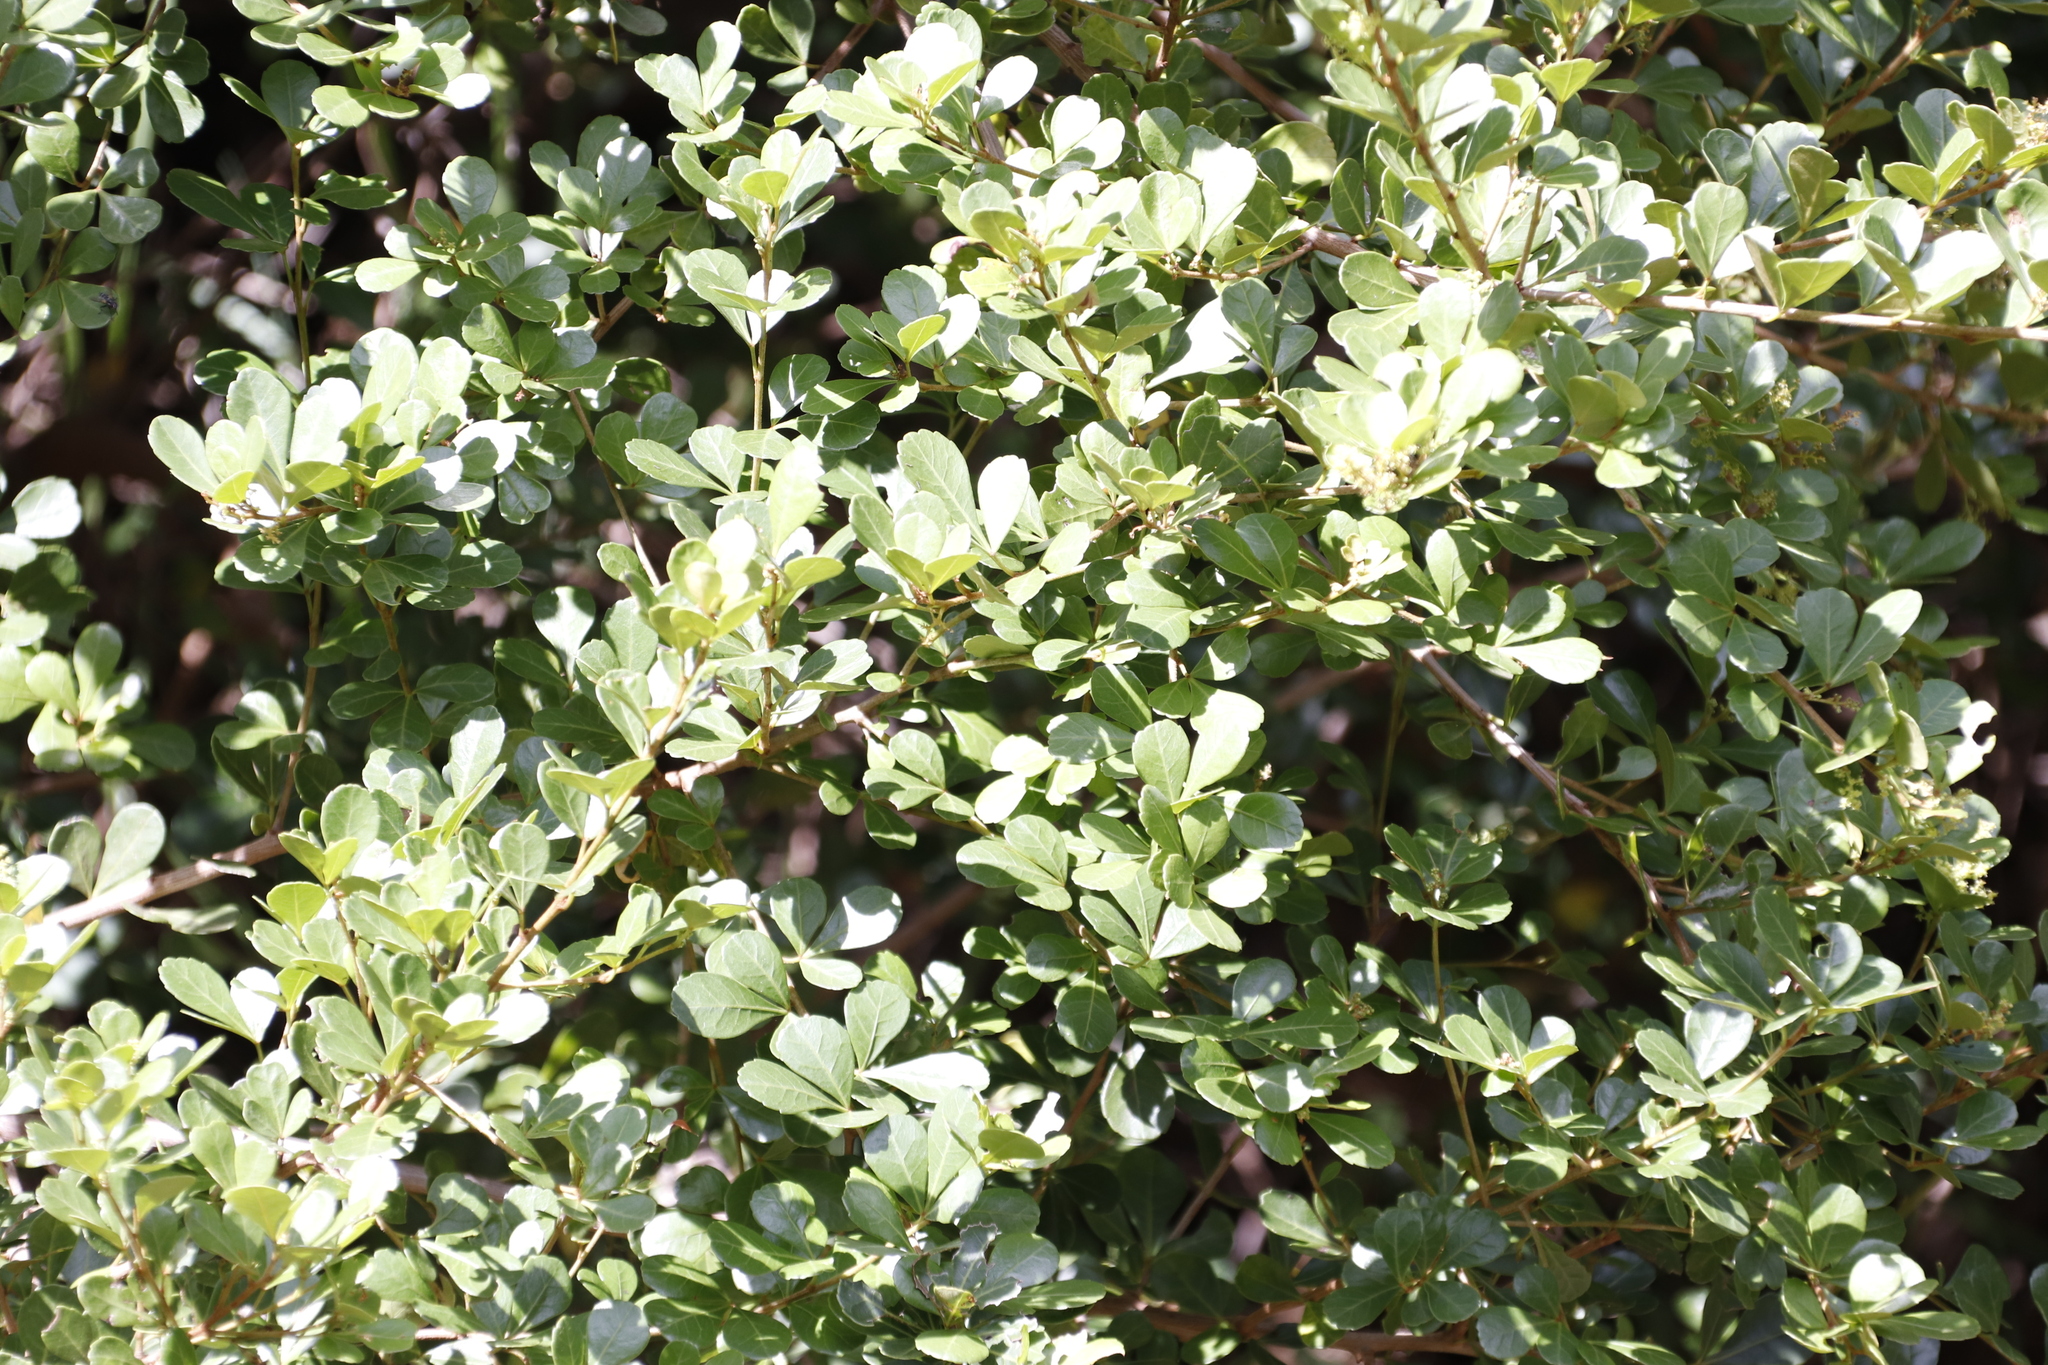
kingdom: Plantae
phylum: Tracheophyta
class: Magnoliopsida
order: Sapindales
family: Anacardiaceae
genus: Searsia
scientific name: Searsia crenata
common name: Crowberry
